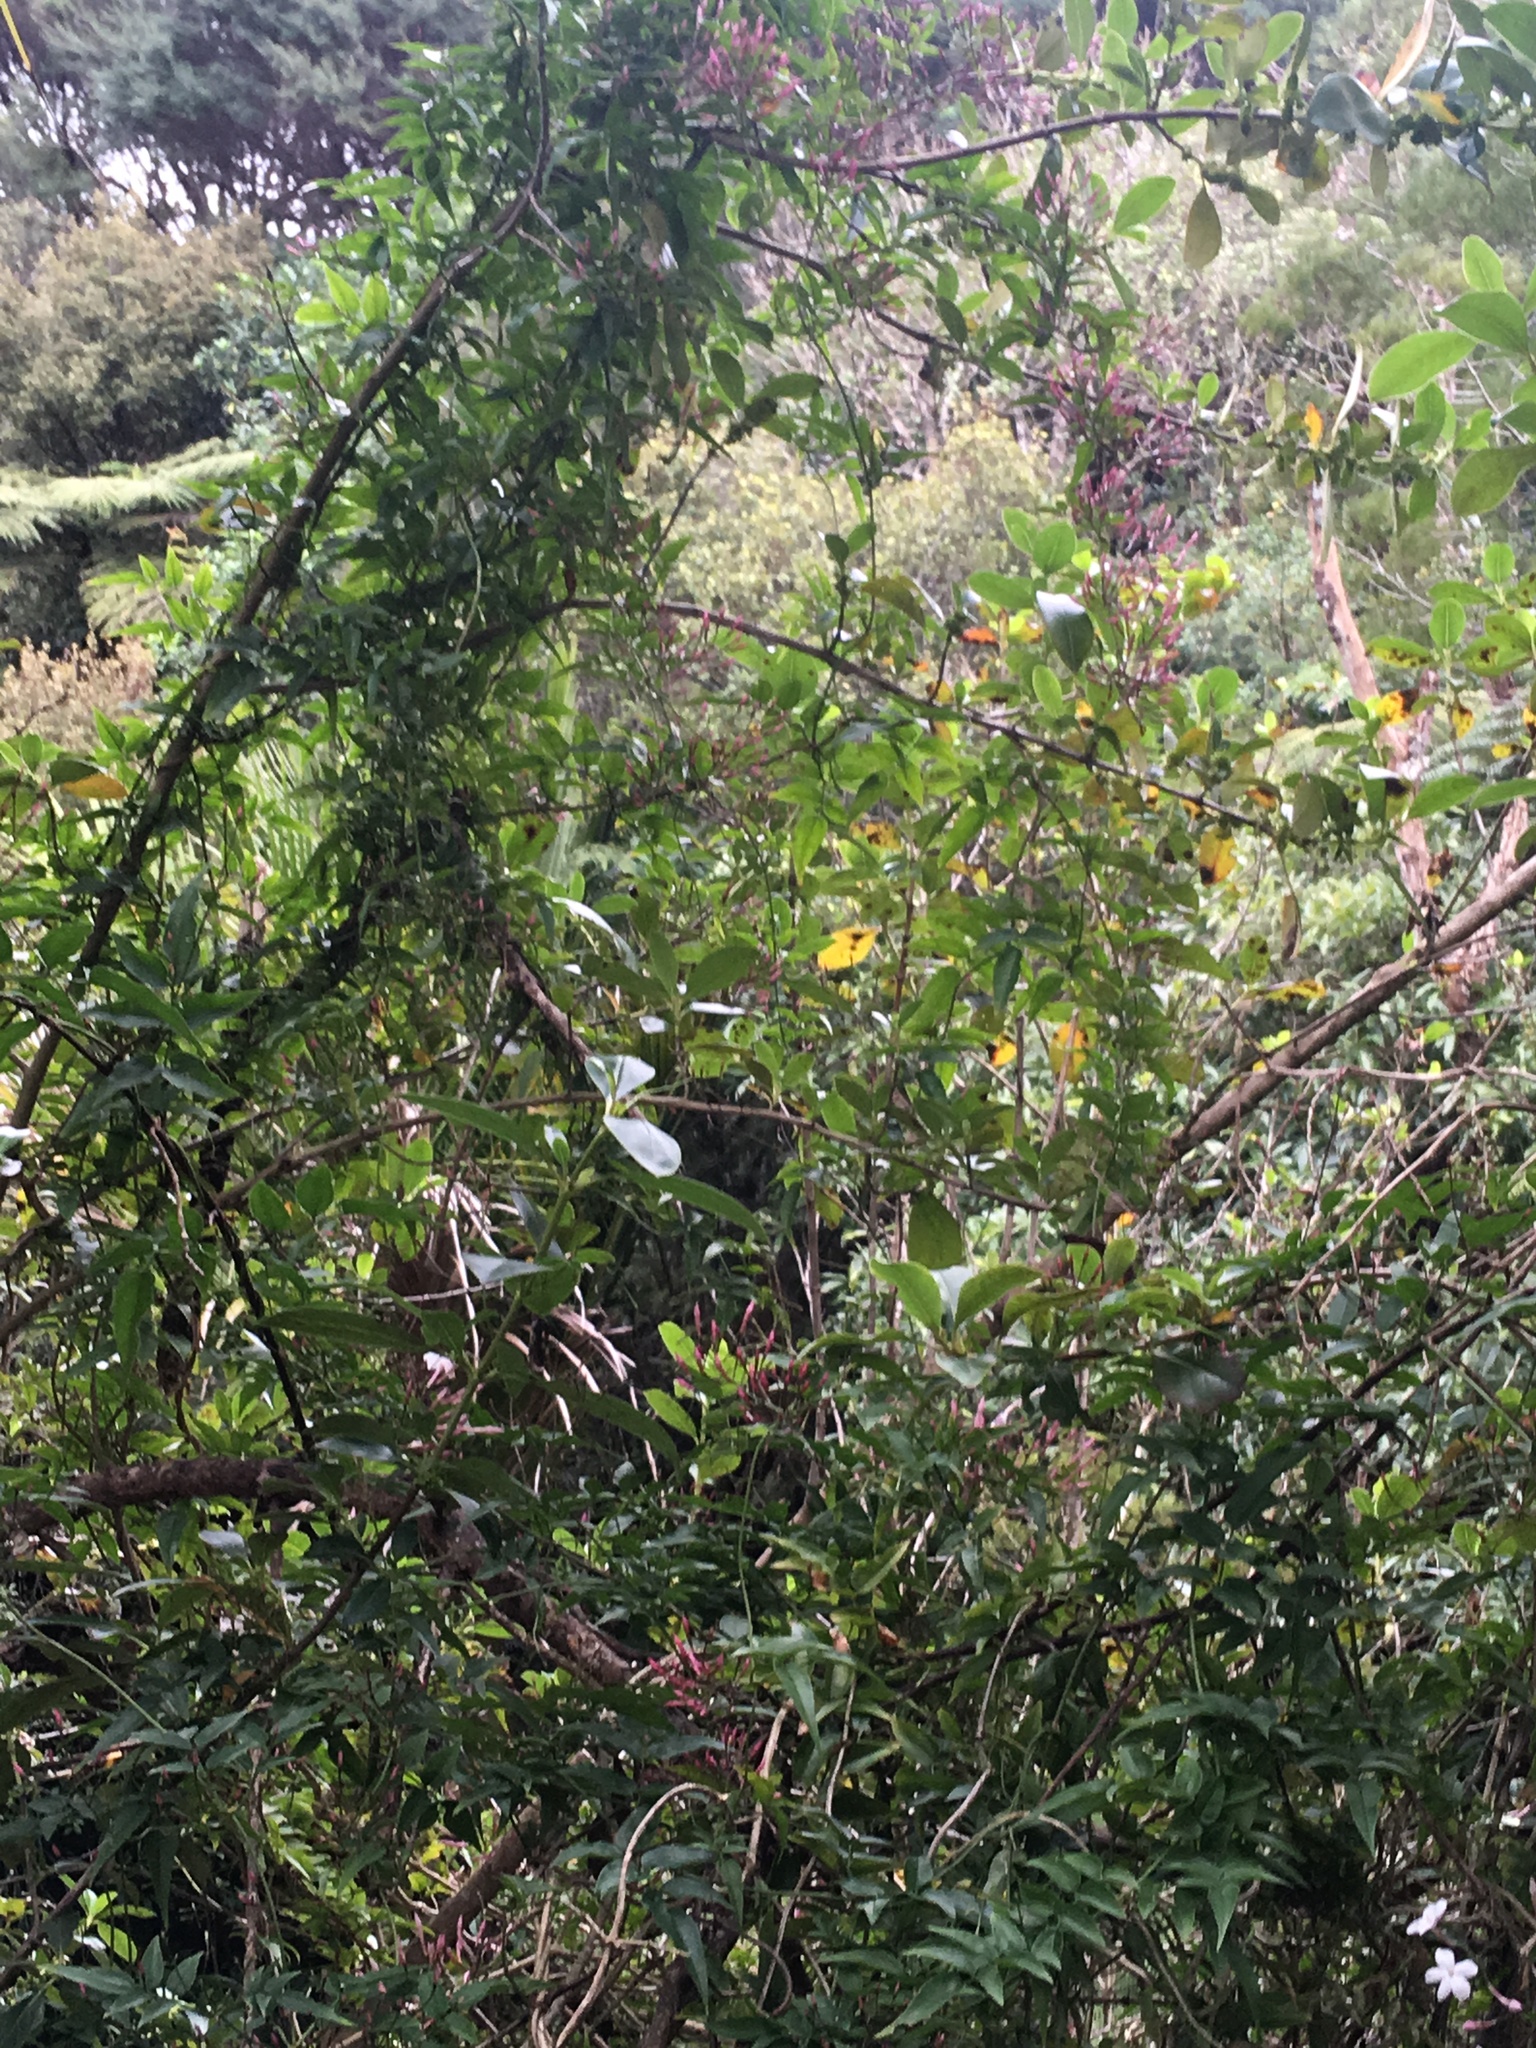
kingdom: Plantae
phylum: Tracheophyta
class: Magnoliopsida
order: Lamiales
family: Oleaceae
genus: Jasminum
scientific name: Jasminum polyanthum
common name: Pink jasmine
